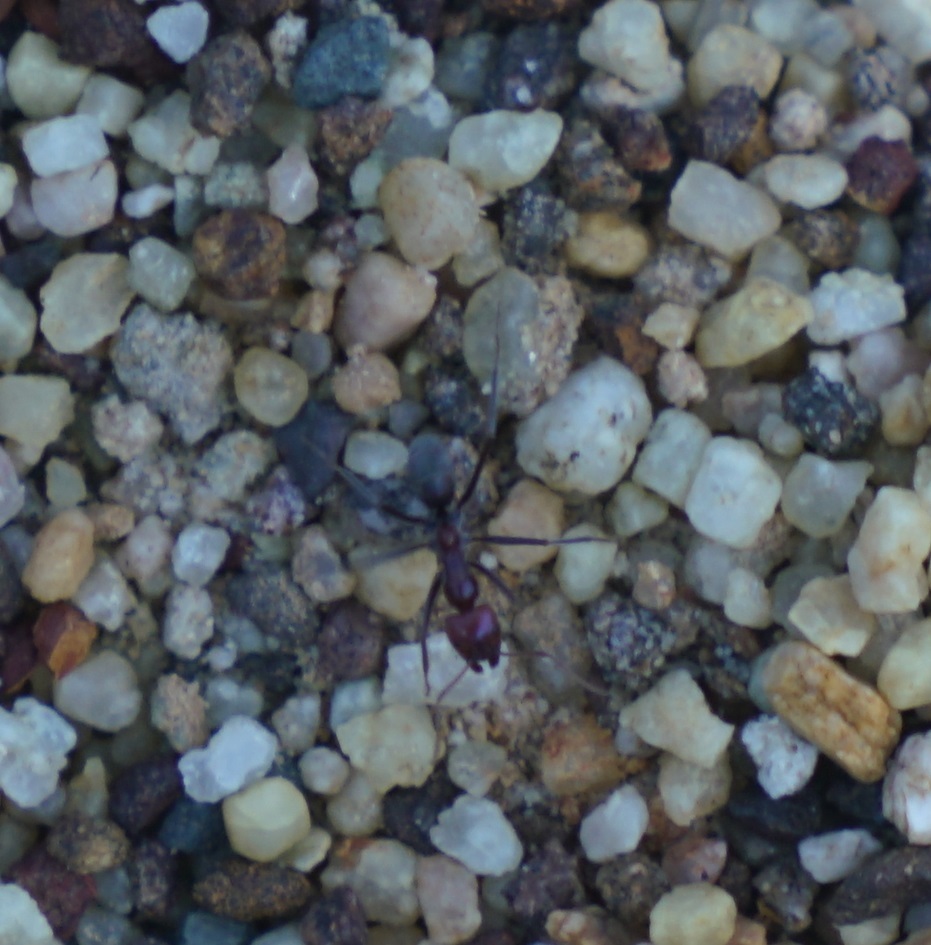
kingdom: Animalia
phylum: Arthropoda
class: Insecta
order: Hymenoptera
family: Formicidae
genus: Iridomyrmex
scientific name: Iridomyrmex purpureus
